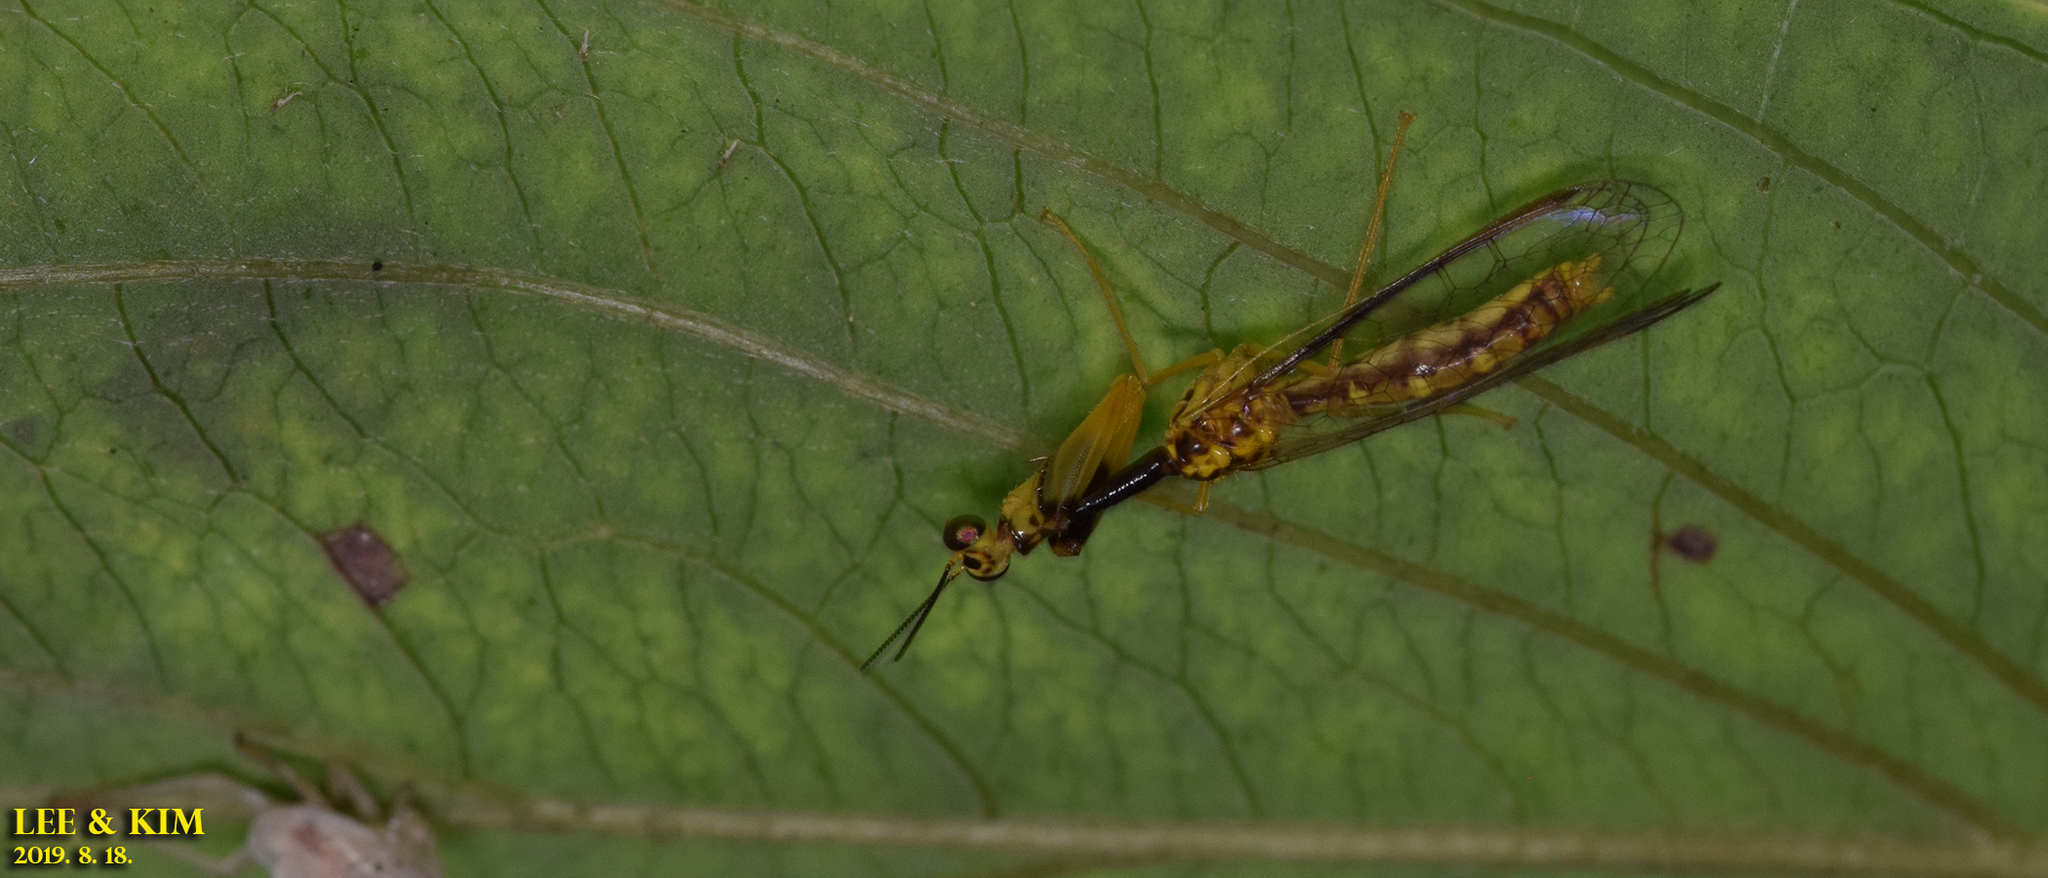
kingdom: Animalia
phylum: Arthropoda
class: Insecta
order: Neuroptera
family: Mantispidae
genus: Mantispa
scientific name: Mantispa japonica
